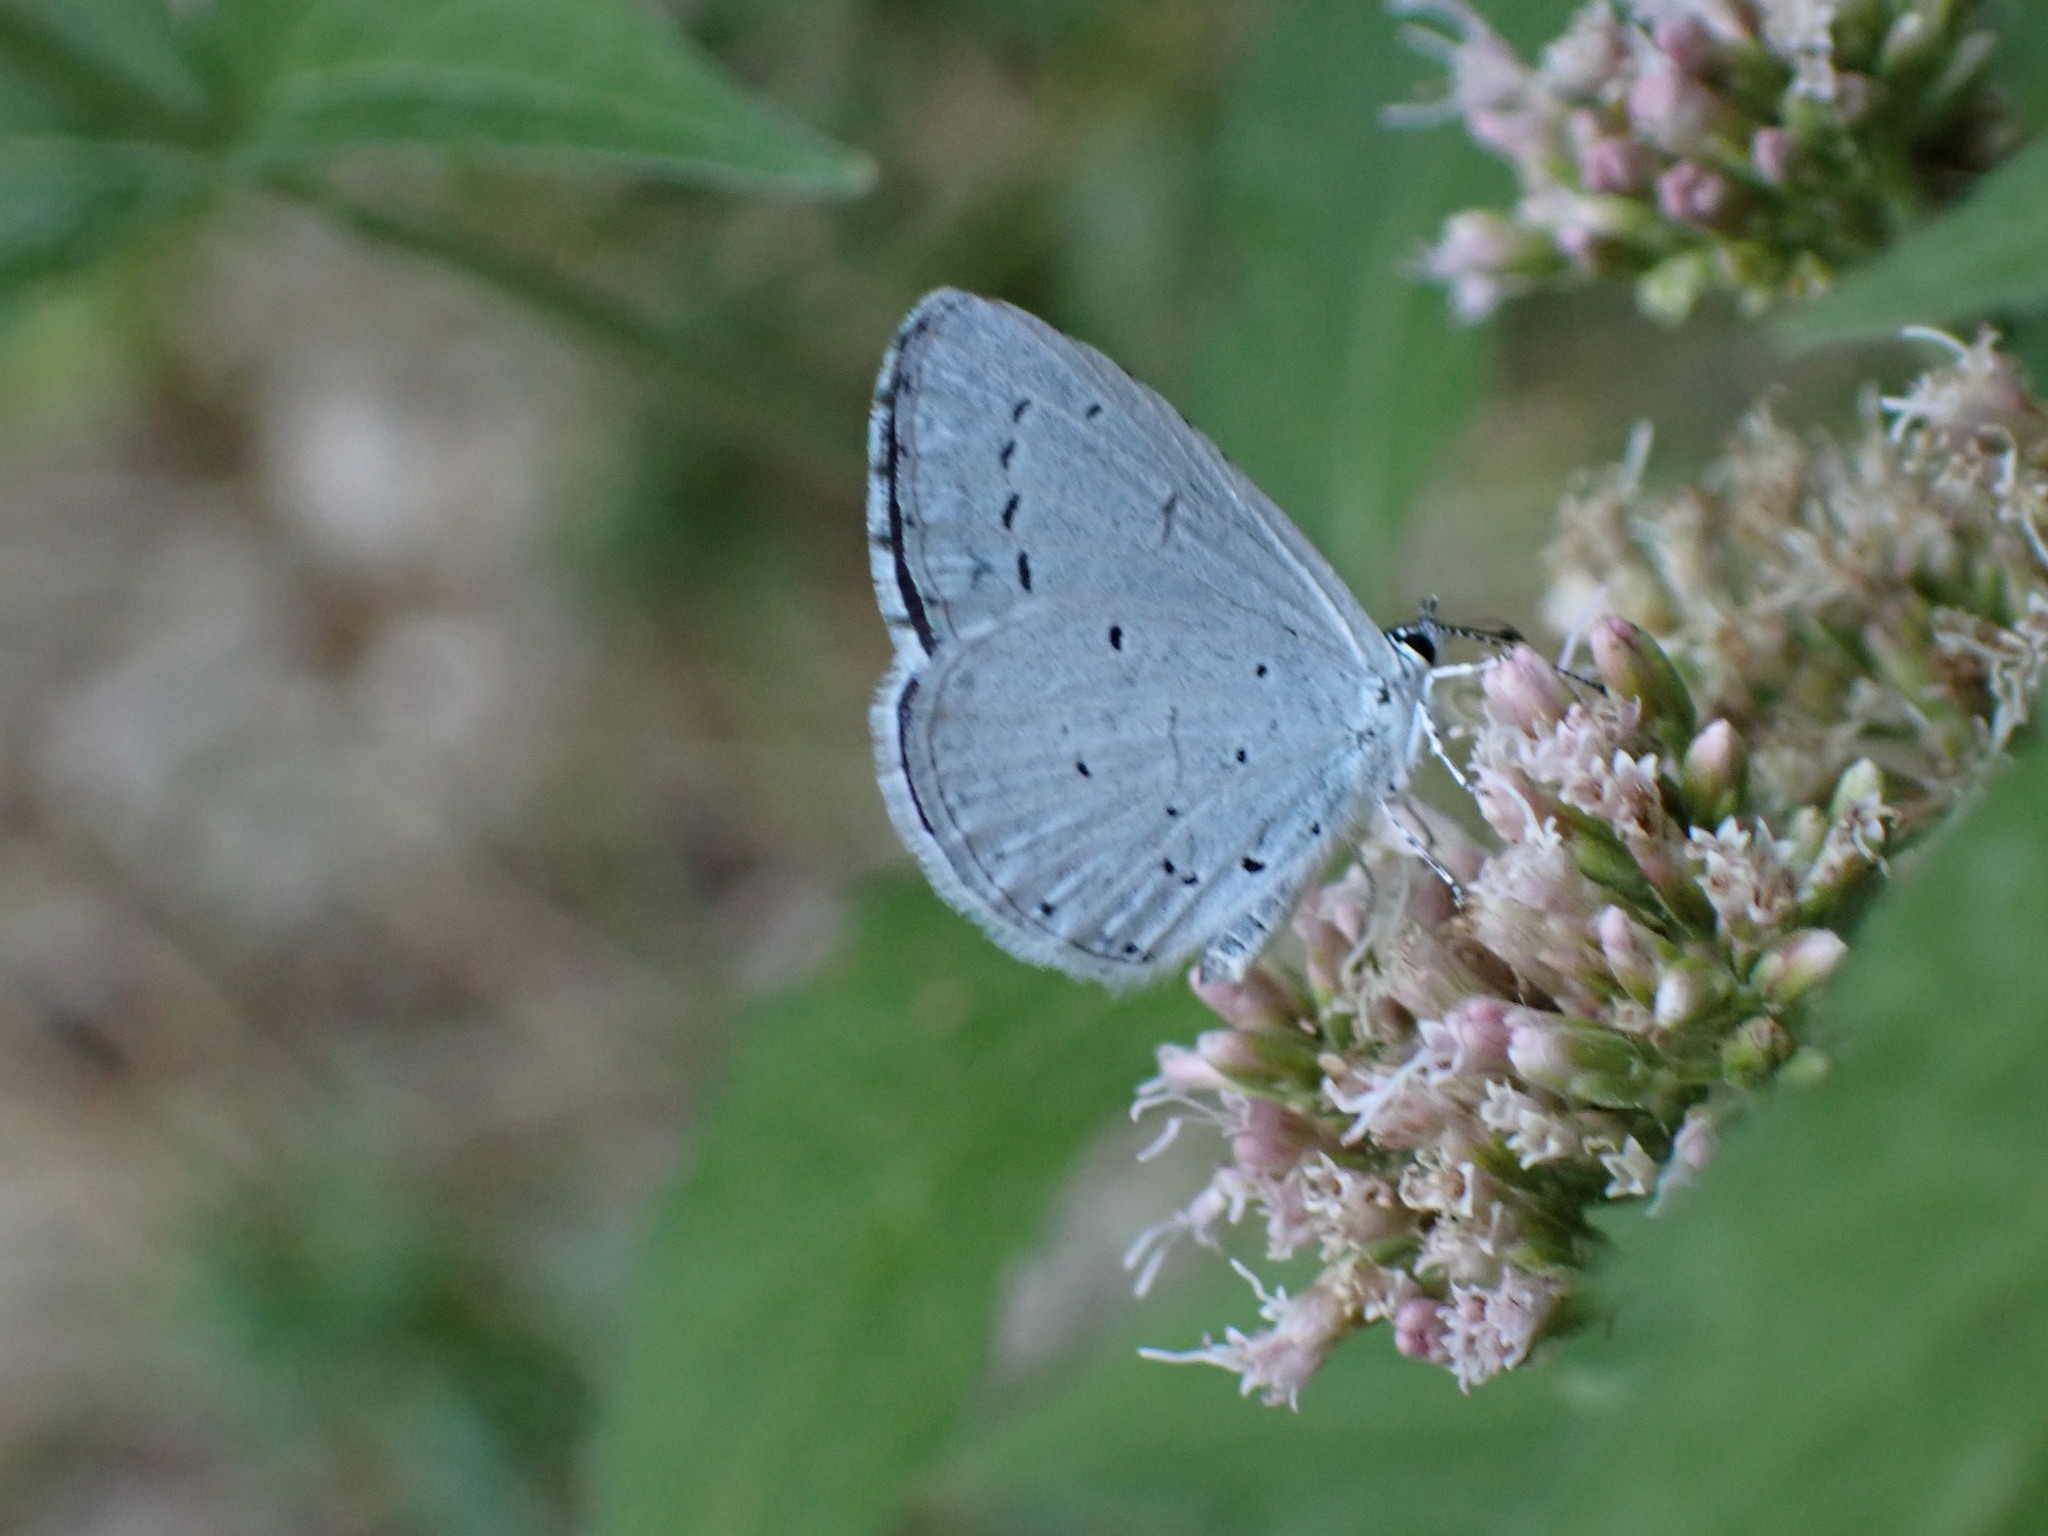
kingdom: Animalia
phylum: Arthropoda
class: Insecta
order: Lepidoptera
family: Lycaenidae
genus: Celastrina
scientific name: Celastrina argiolus
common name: Holly blue
